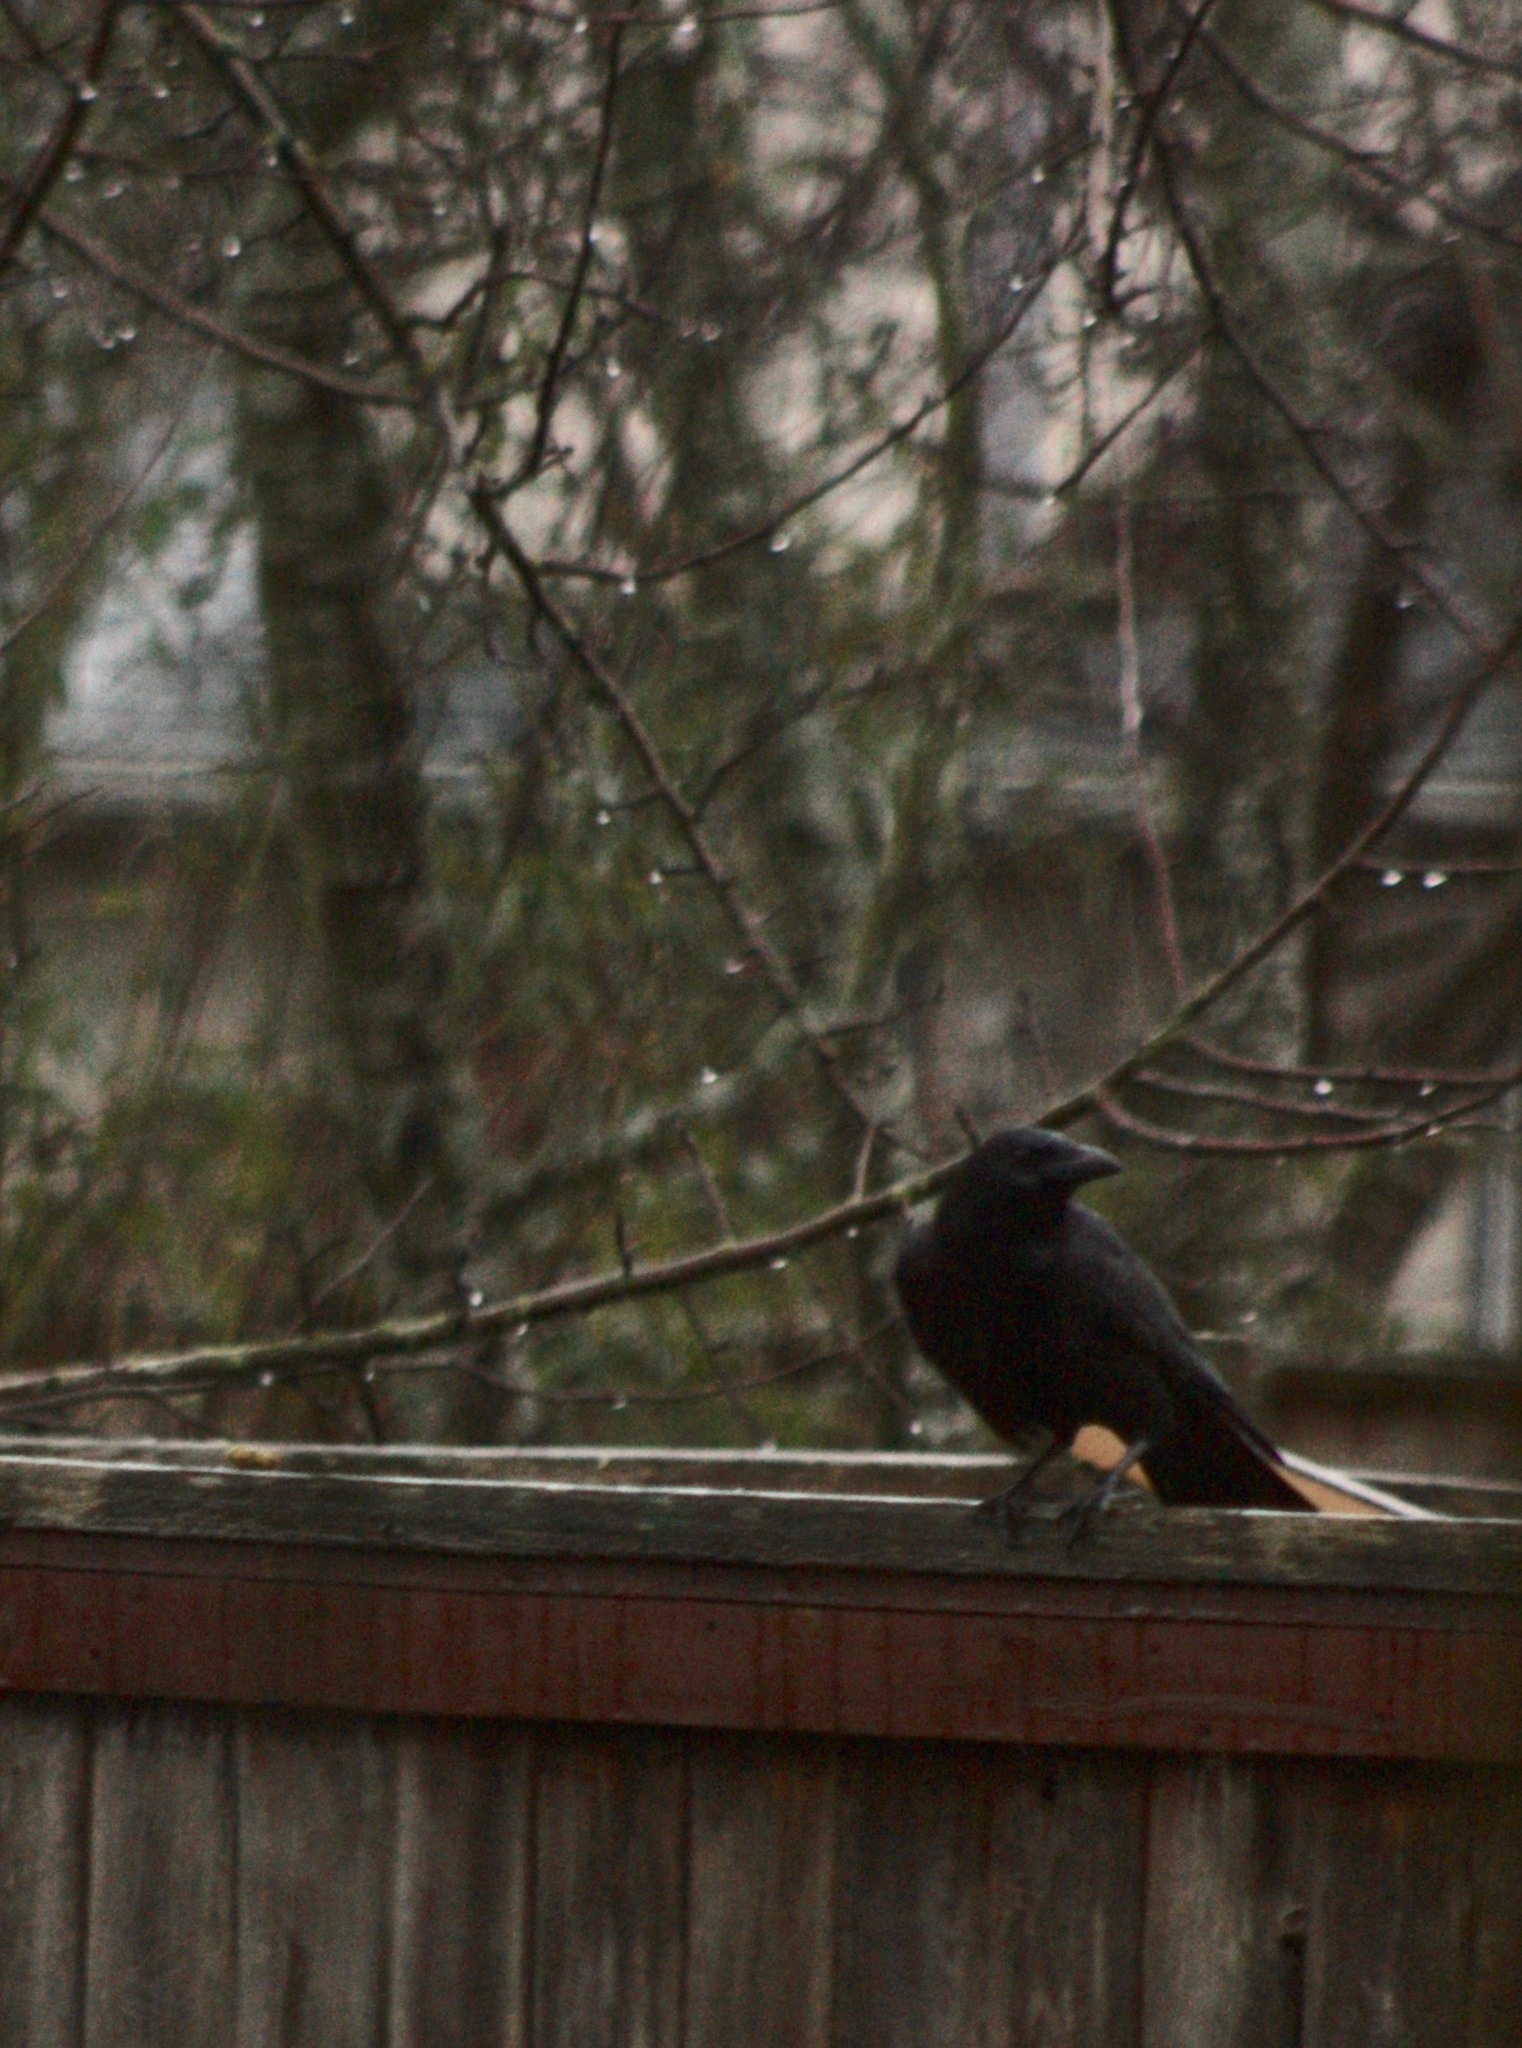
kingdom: Animalia
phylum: Chordata
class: Aves
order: Passeriformes
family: Corvidae
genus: Corvus
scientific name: Corvus brachyrhynchos
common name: American crow
